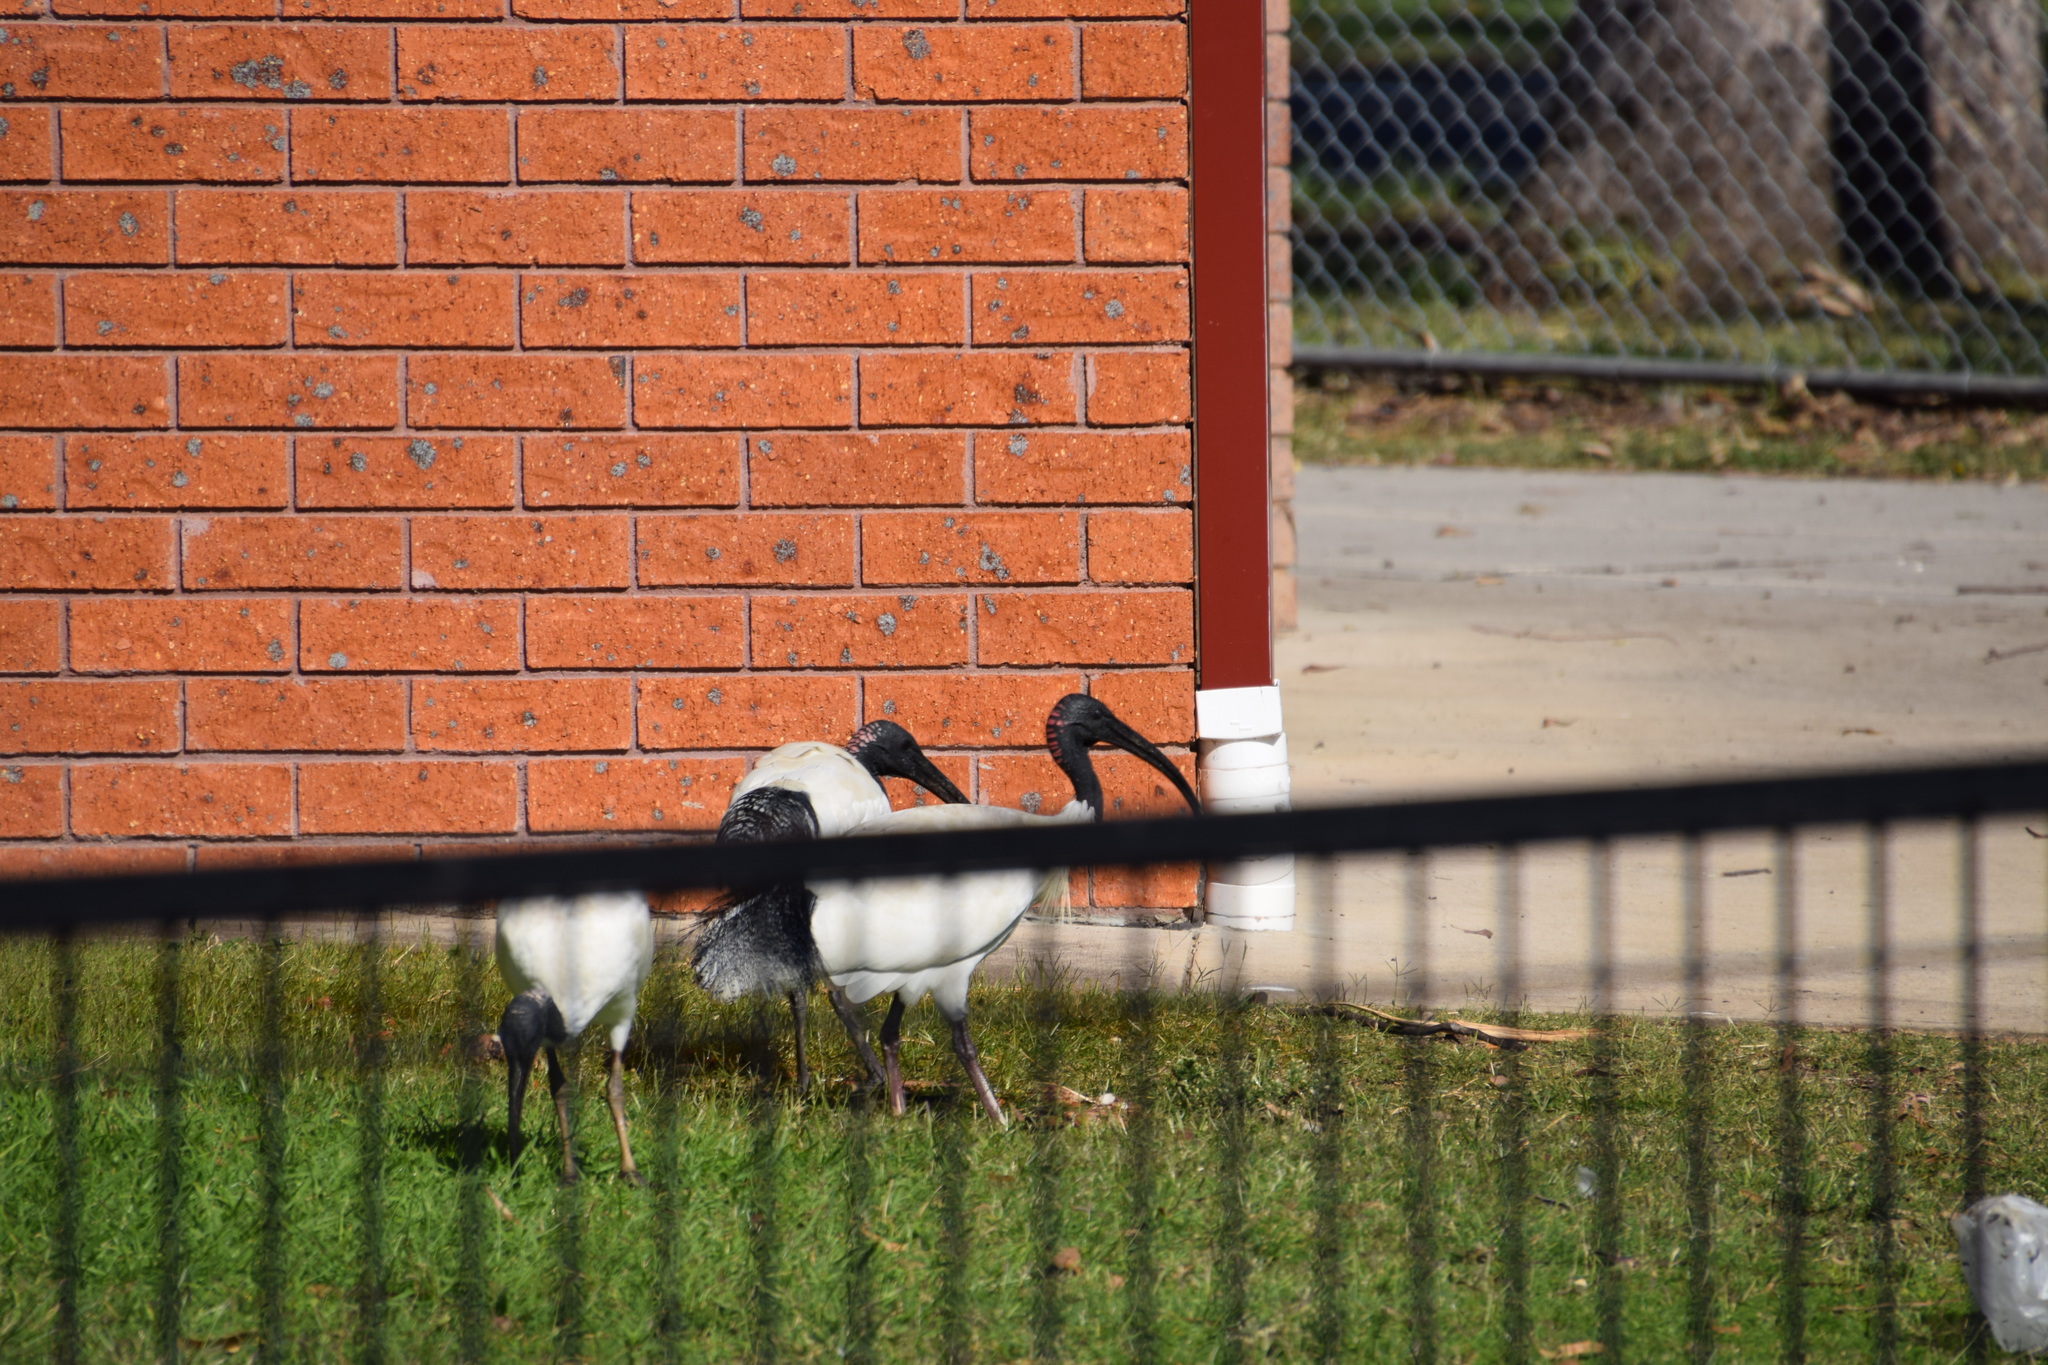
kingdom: Animalia
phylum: Chordata
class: Aves
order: Pelecaniformes
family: Threskiornithidae
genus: Threskiornis
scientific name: Threskiornis molucca
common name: Australian white ibis
